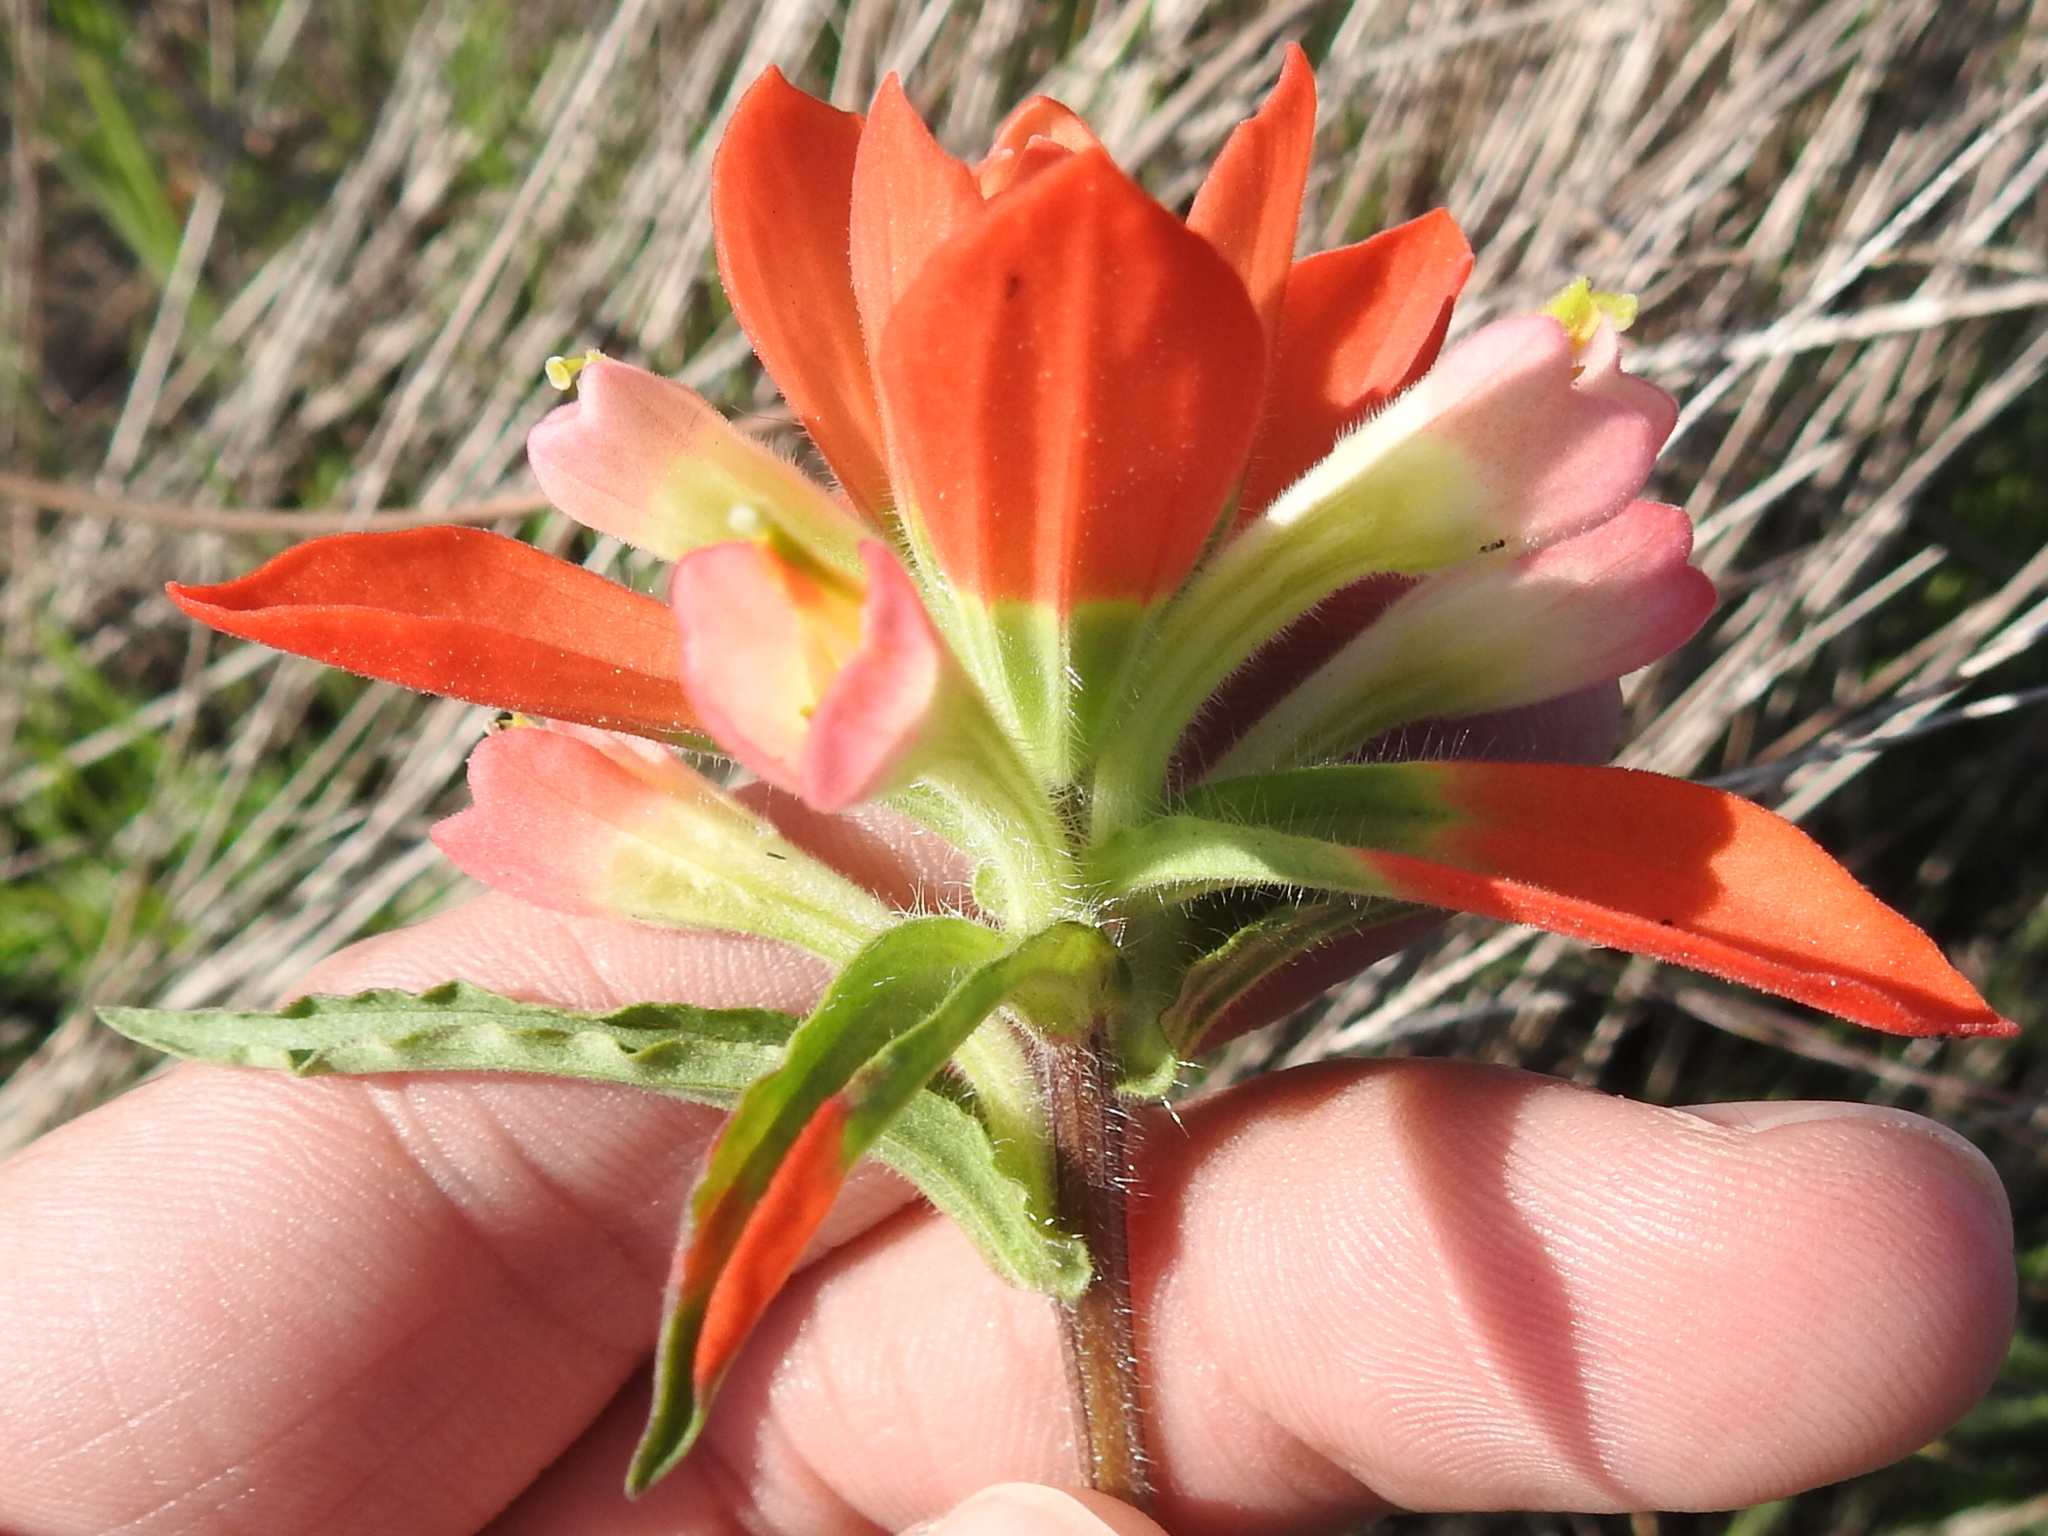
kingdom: Plantae
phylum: Tracheophyta
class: Magnoliopsida
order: Lamiales
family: Orobanchaceae
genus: Castilleja
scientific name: Castilleja indivisa
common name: Texas paintbrush
